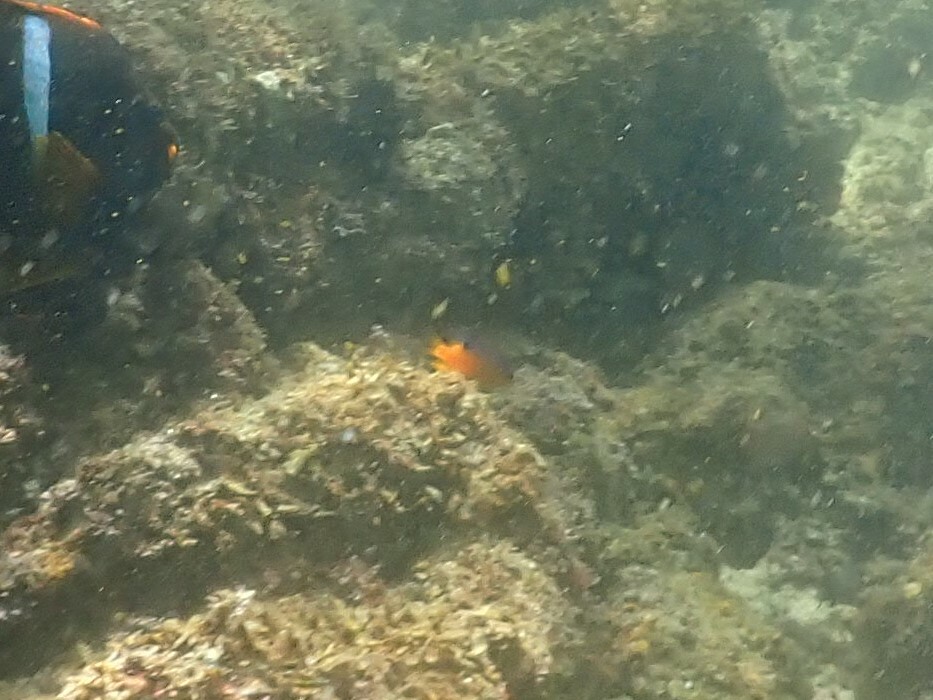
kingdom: Animalia
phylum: Chordata
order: Perciformes
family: Pomacentridae
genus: Stegastes
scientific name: Stegastes flavilatus
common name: Beaubrummel
